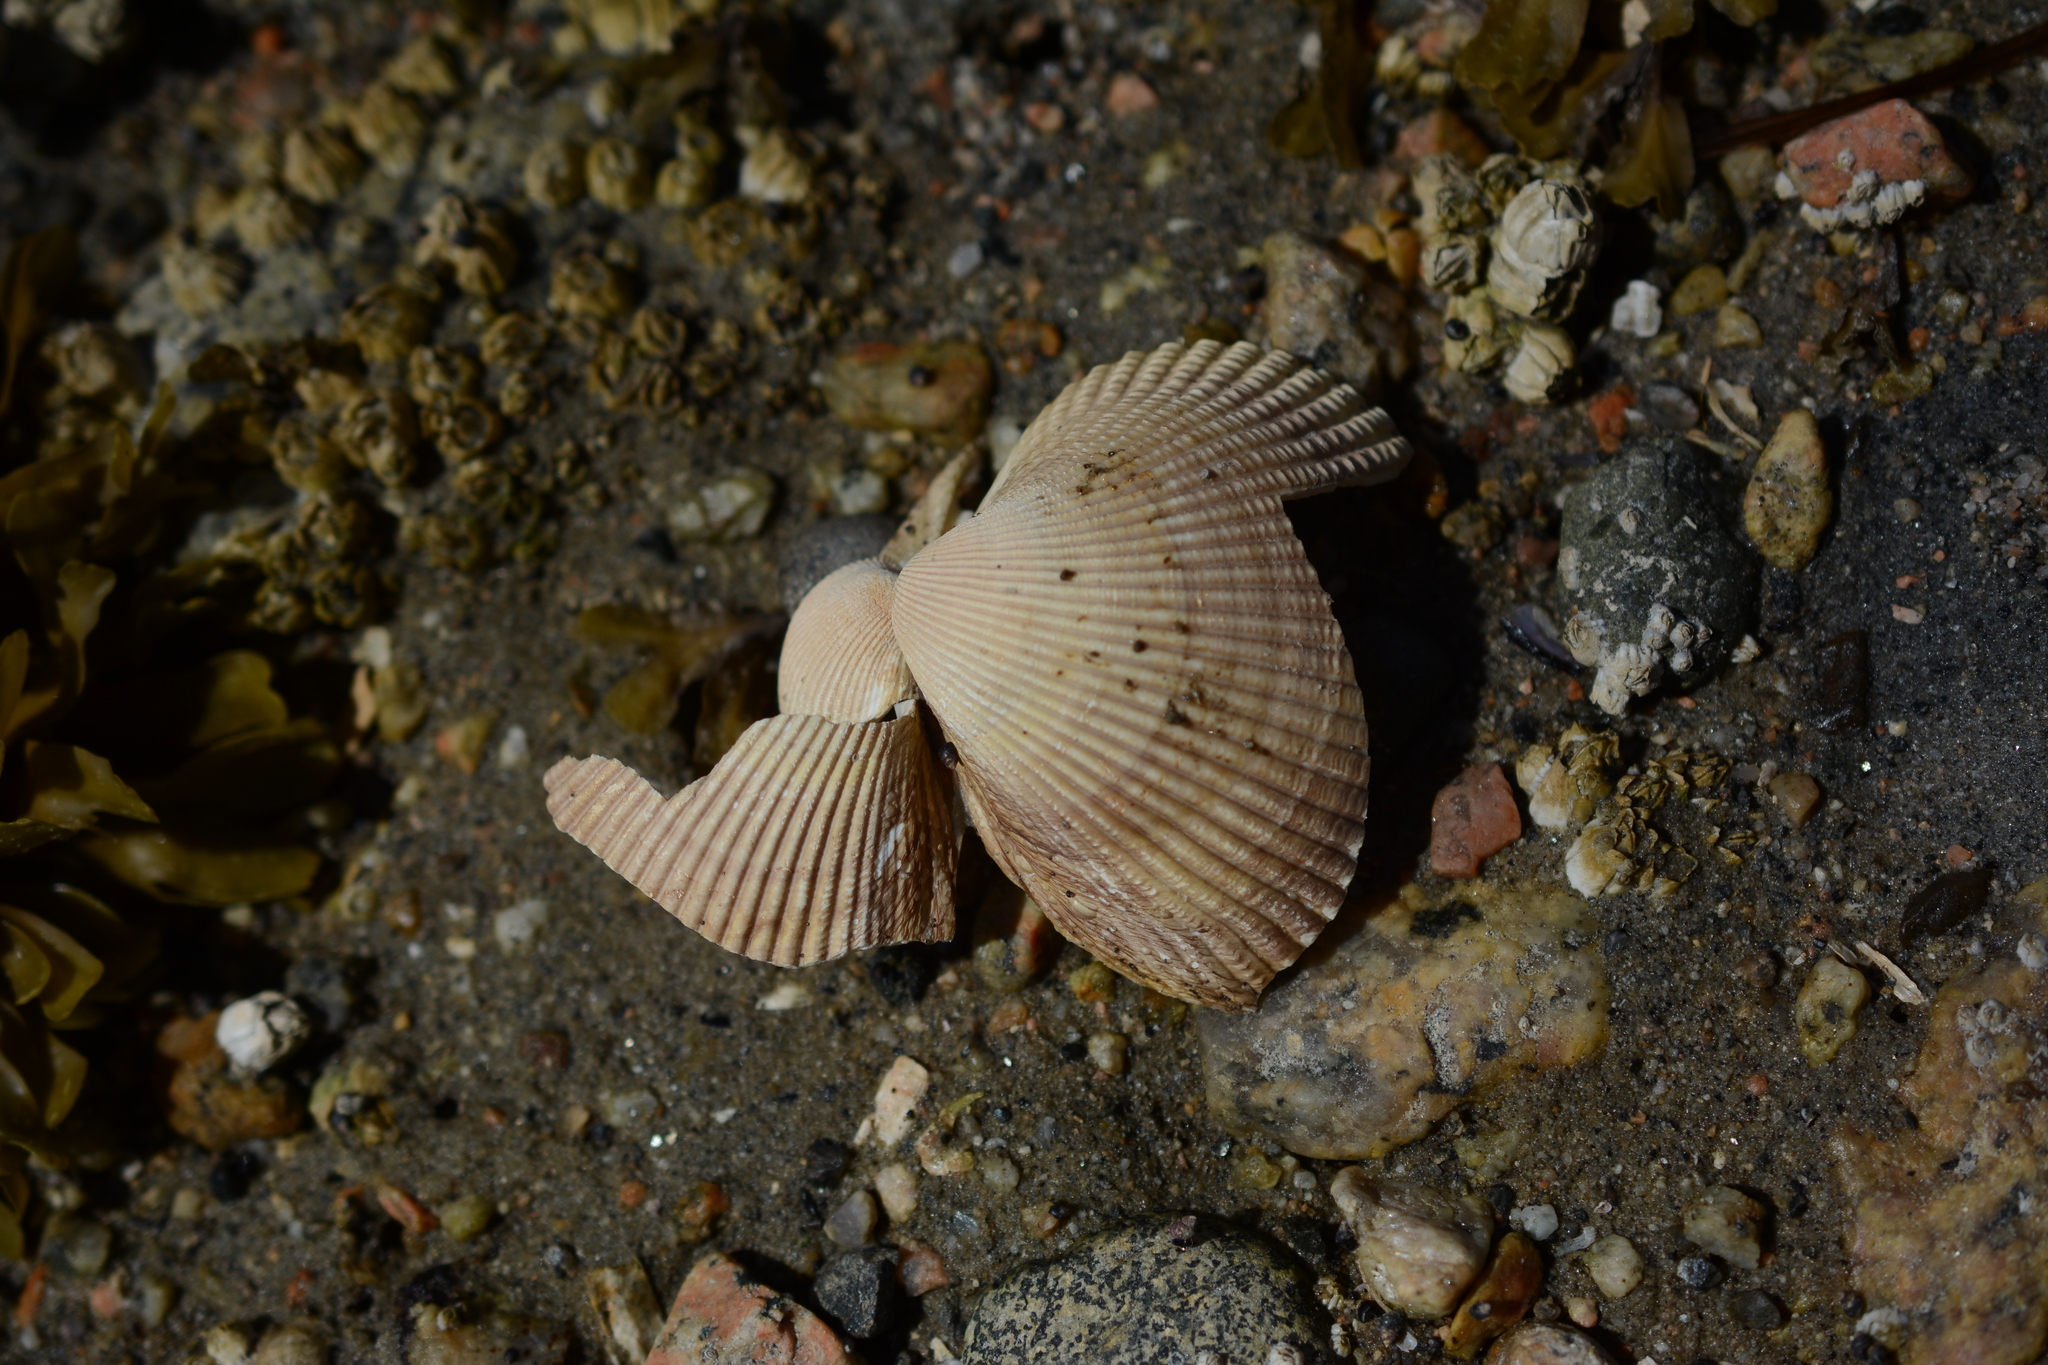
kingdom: Animalia
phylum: Mollusca
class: Bivalvia
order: Cardiida
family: Cardiidae
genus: Clinocardium
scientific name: Clinocardium nuttallii
